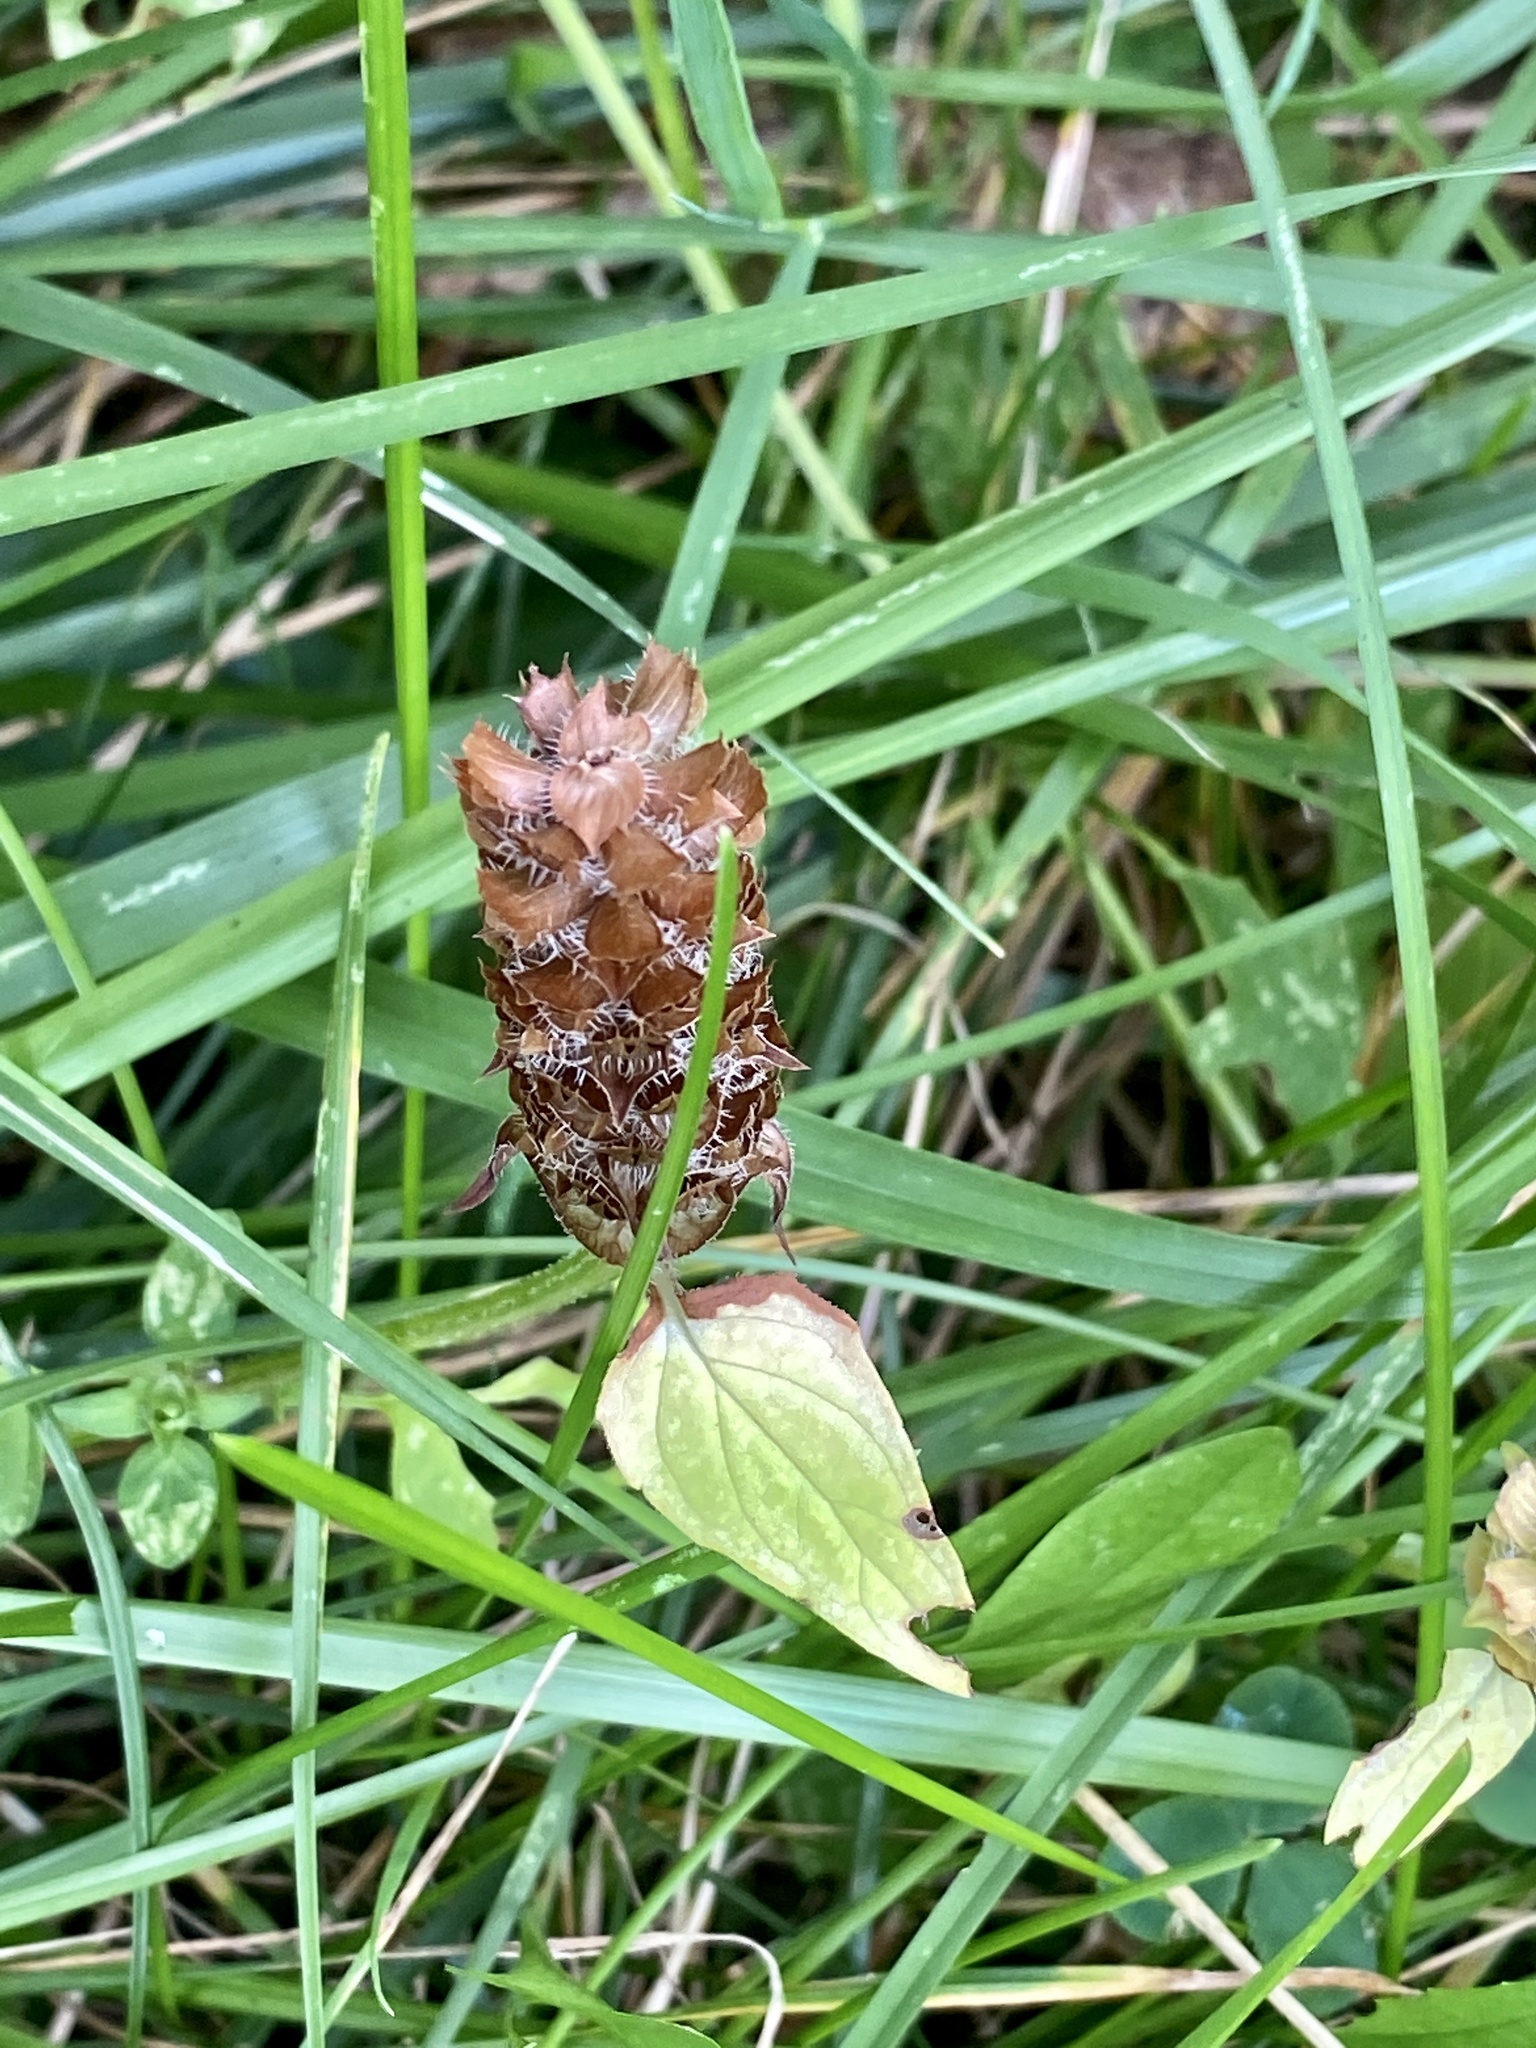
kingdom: Plantae
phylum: Tracheophyta
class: Magnoliopsida
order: Lamiales
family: Lamiaceae
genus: Prunella
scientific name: Prunella vulgaris
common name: Heal-all
